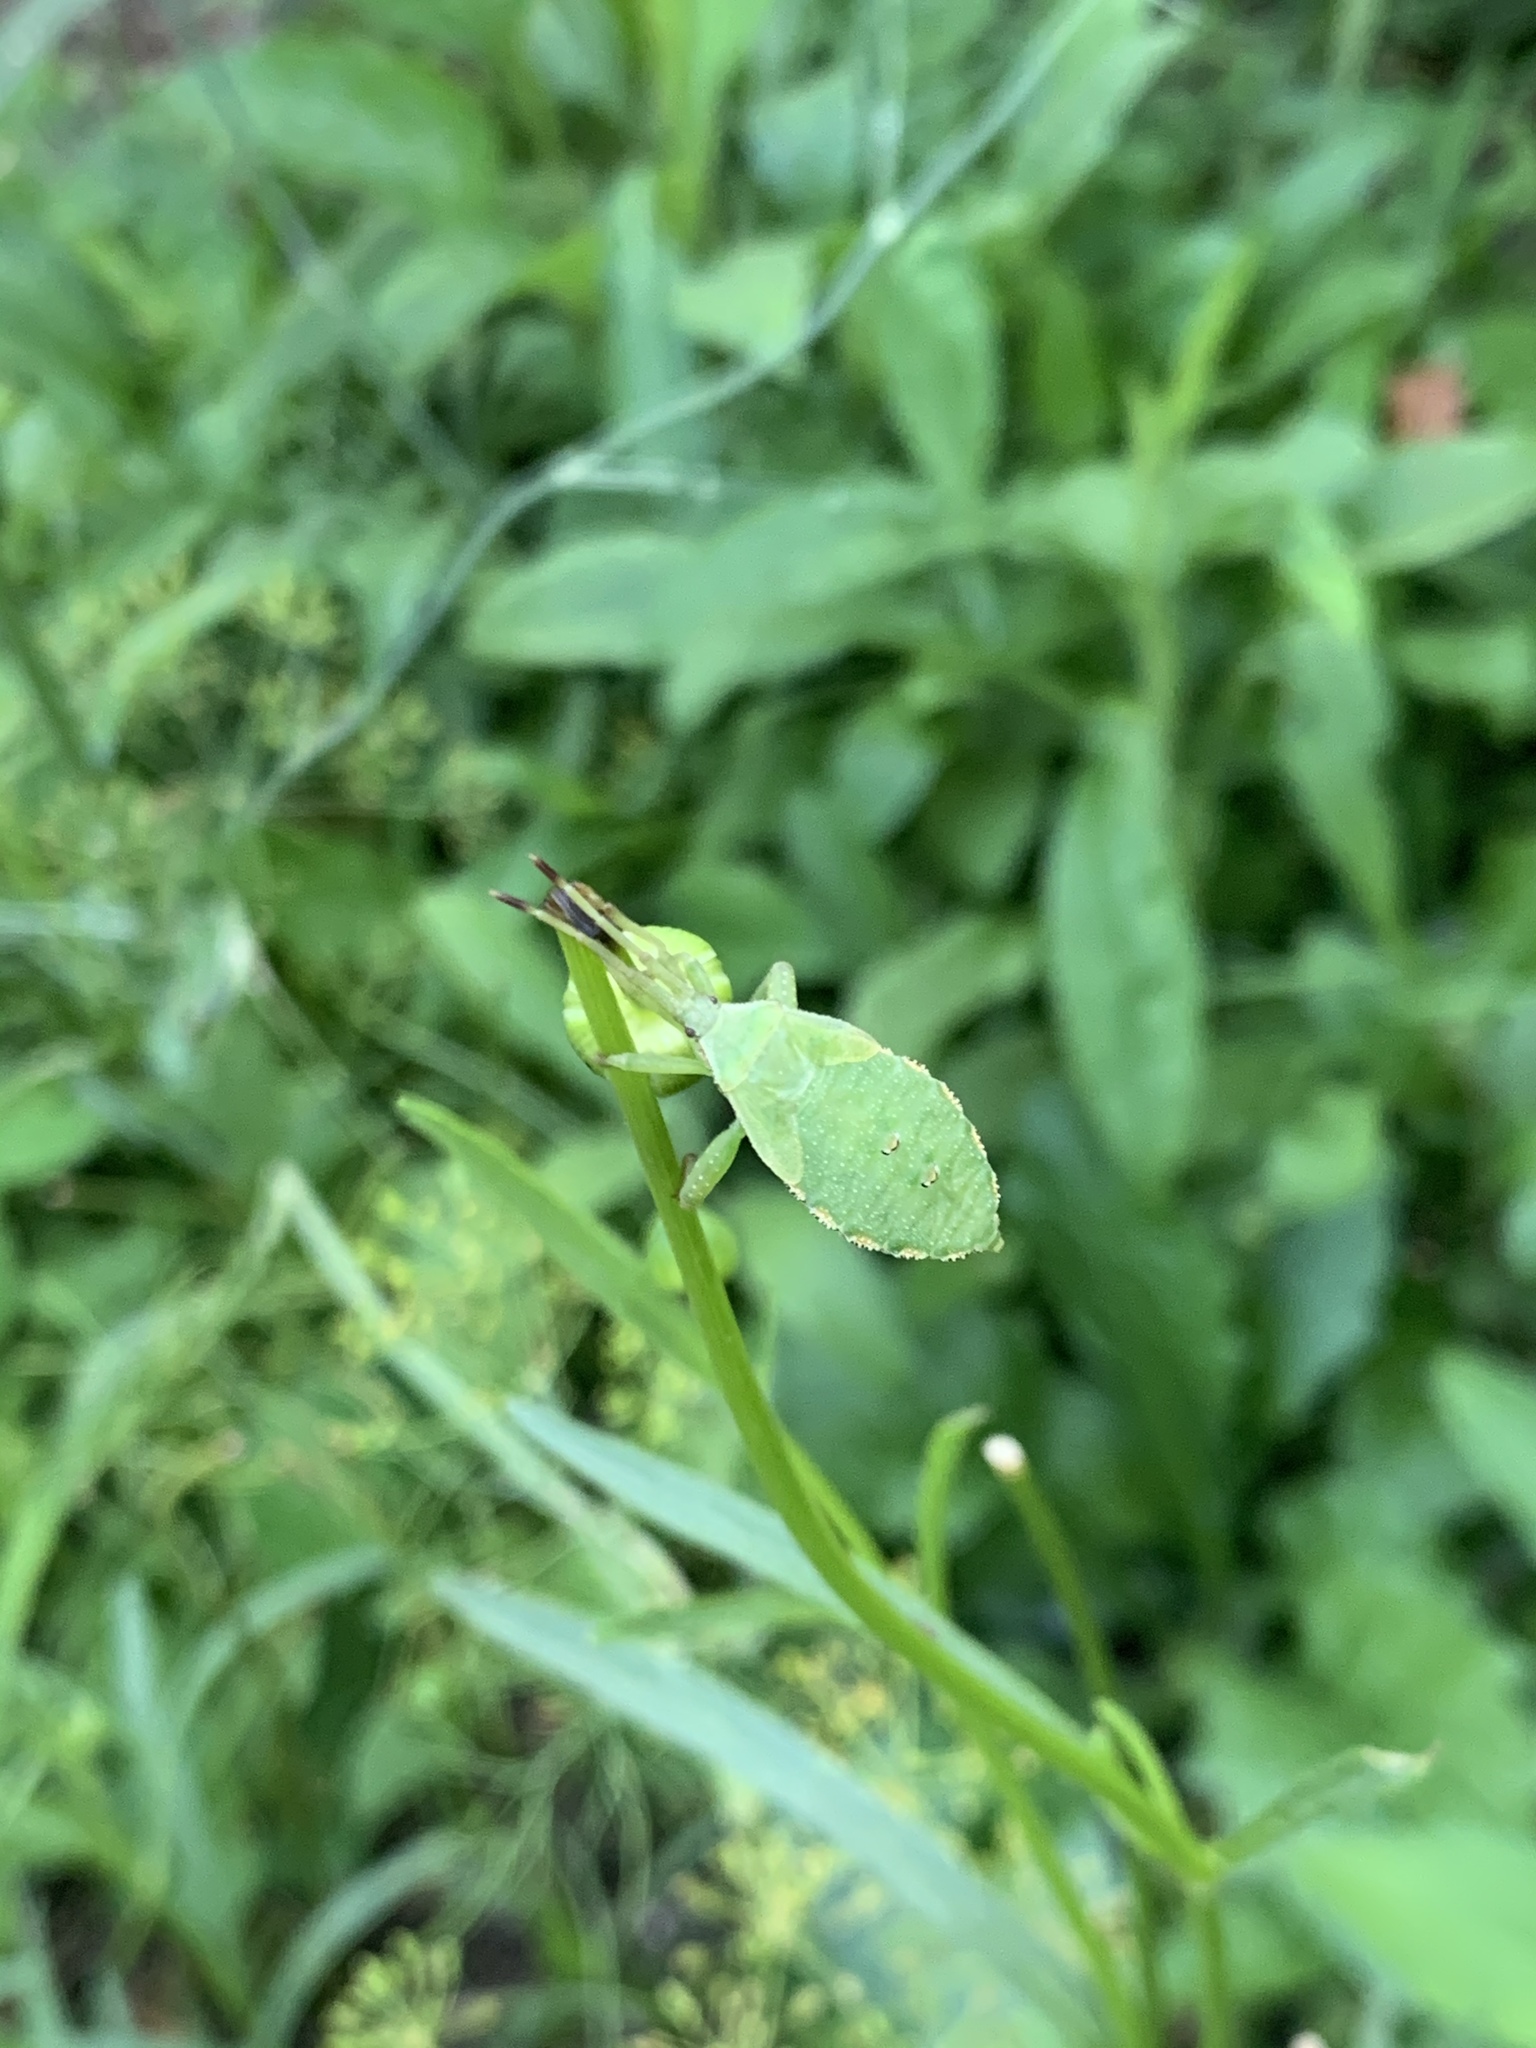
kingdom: Animalia
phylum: Arthropoda
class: Insecta
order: Hemiptera
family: Coreidae
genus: Piezogaster
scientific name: Piezogaster calcarator
